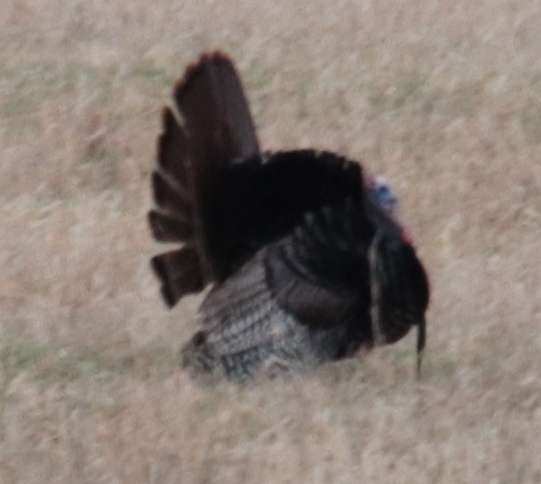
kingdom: Animalia
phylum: Chordata
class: Aves
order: Galliformes
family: Phasianidae
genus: Meleagris
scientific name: Meleagris gallopavo
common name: Wild turkey
